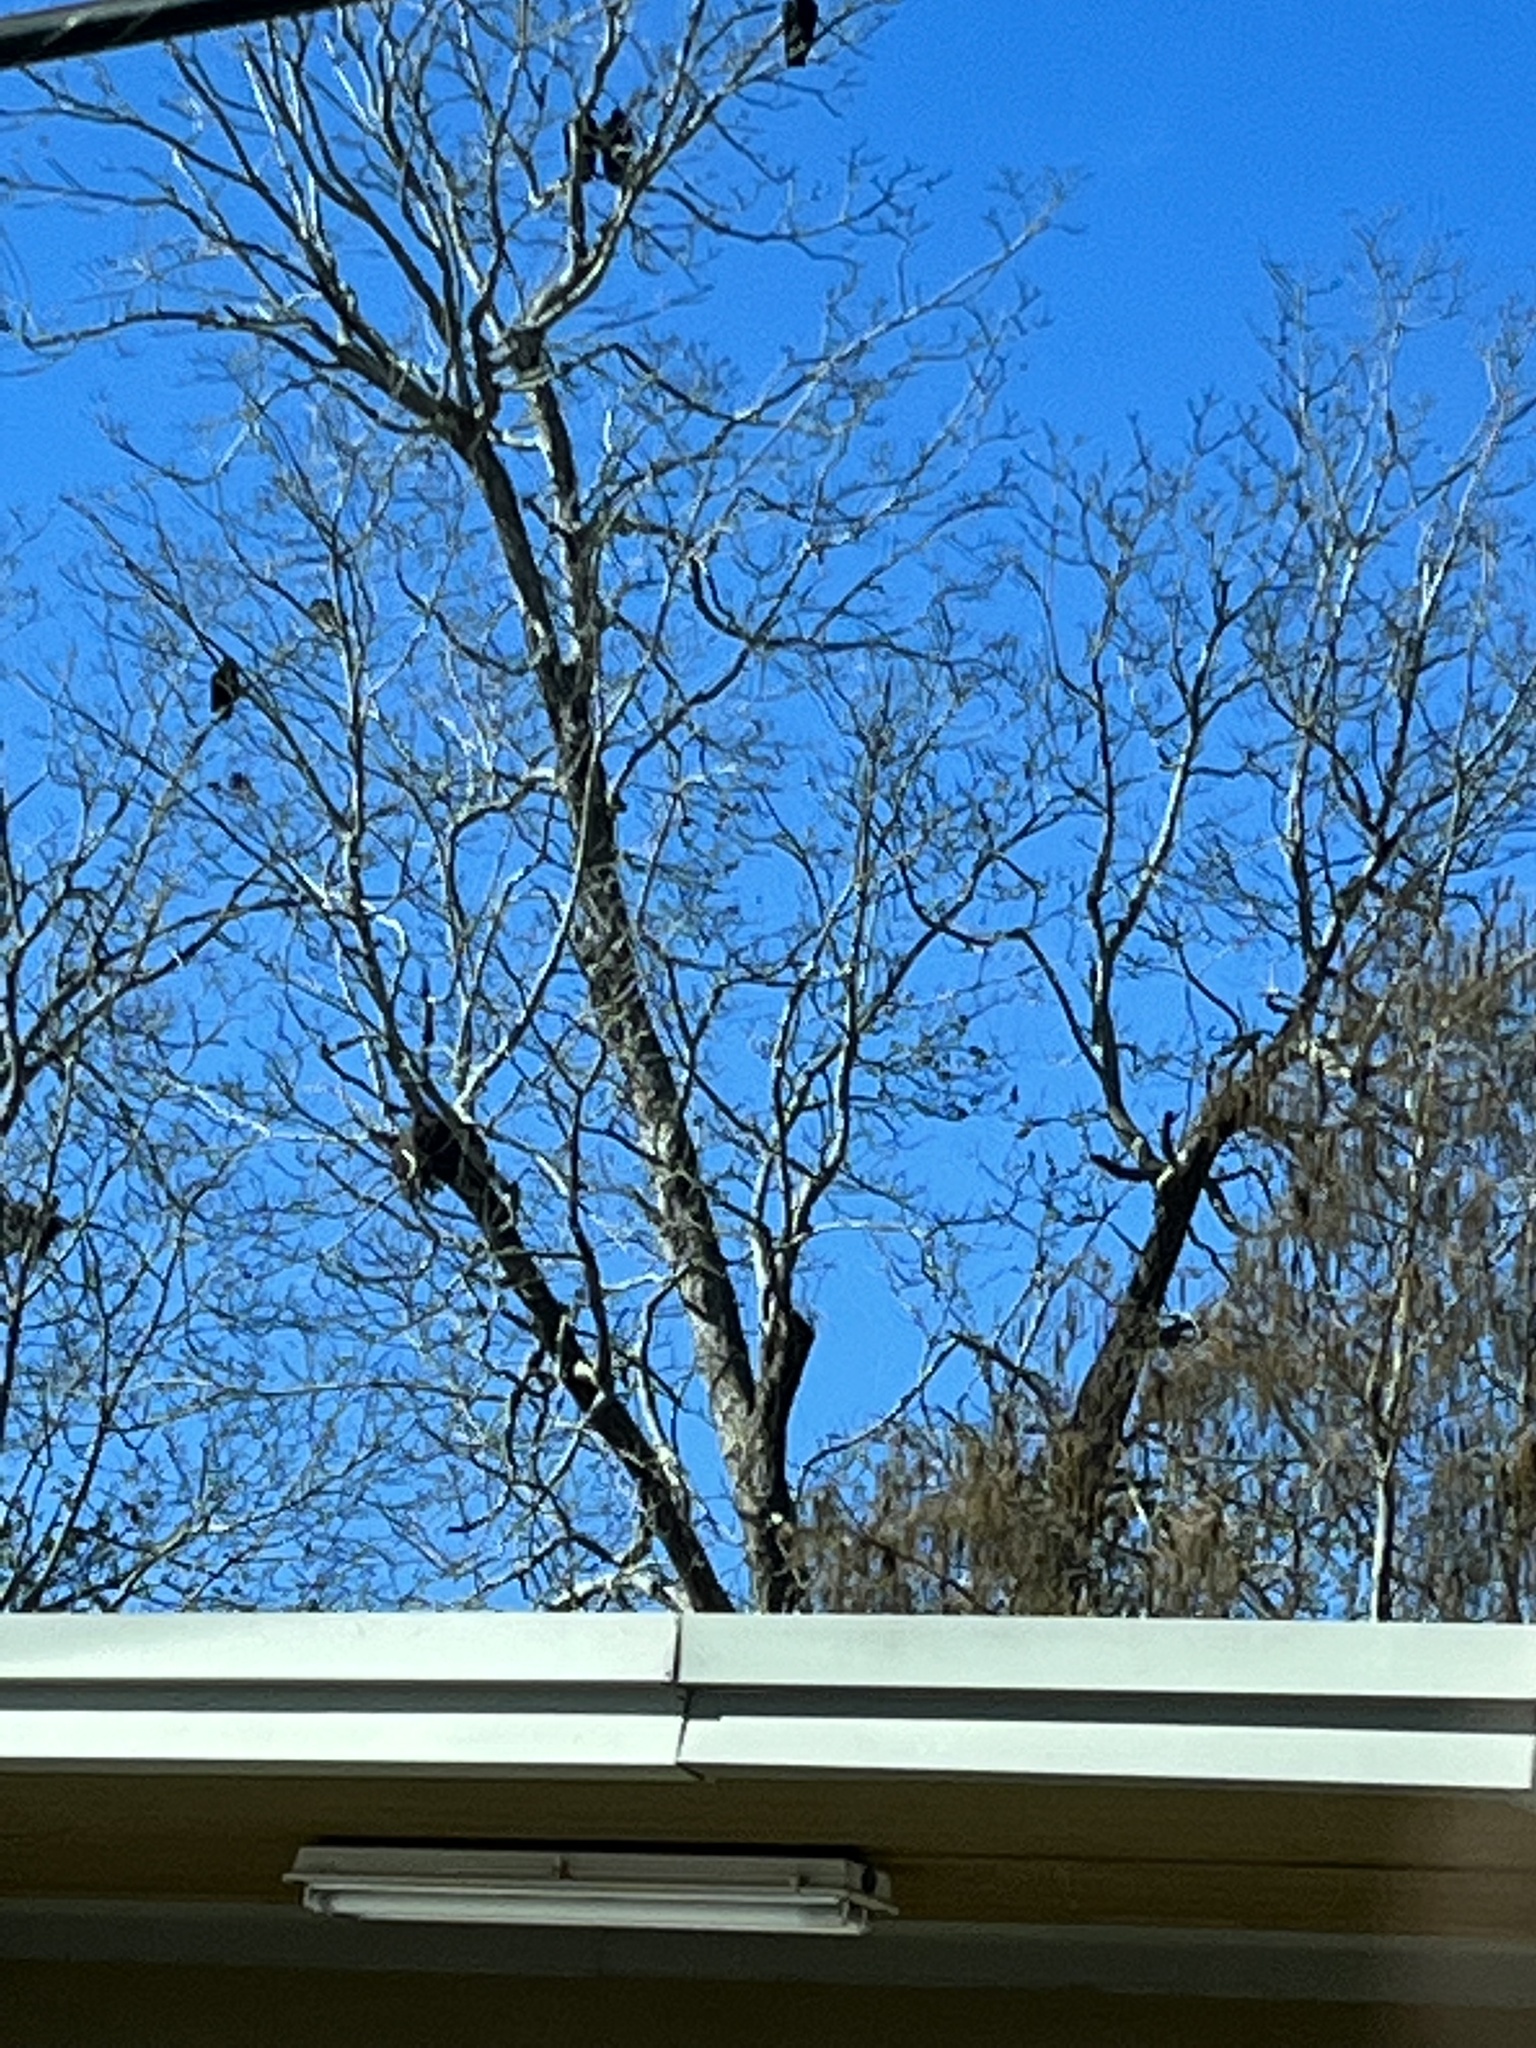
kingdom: Animalia
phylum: Chordata
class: Aves
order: Accipitriformes
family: Cathartidae
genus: Cathartes
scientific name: Cathartes aura
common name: Turkey vulture
